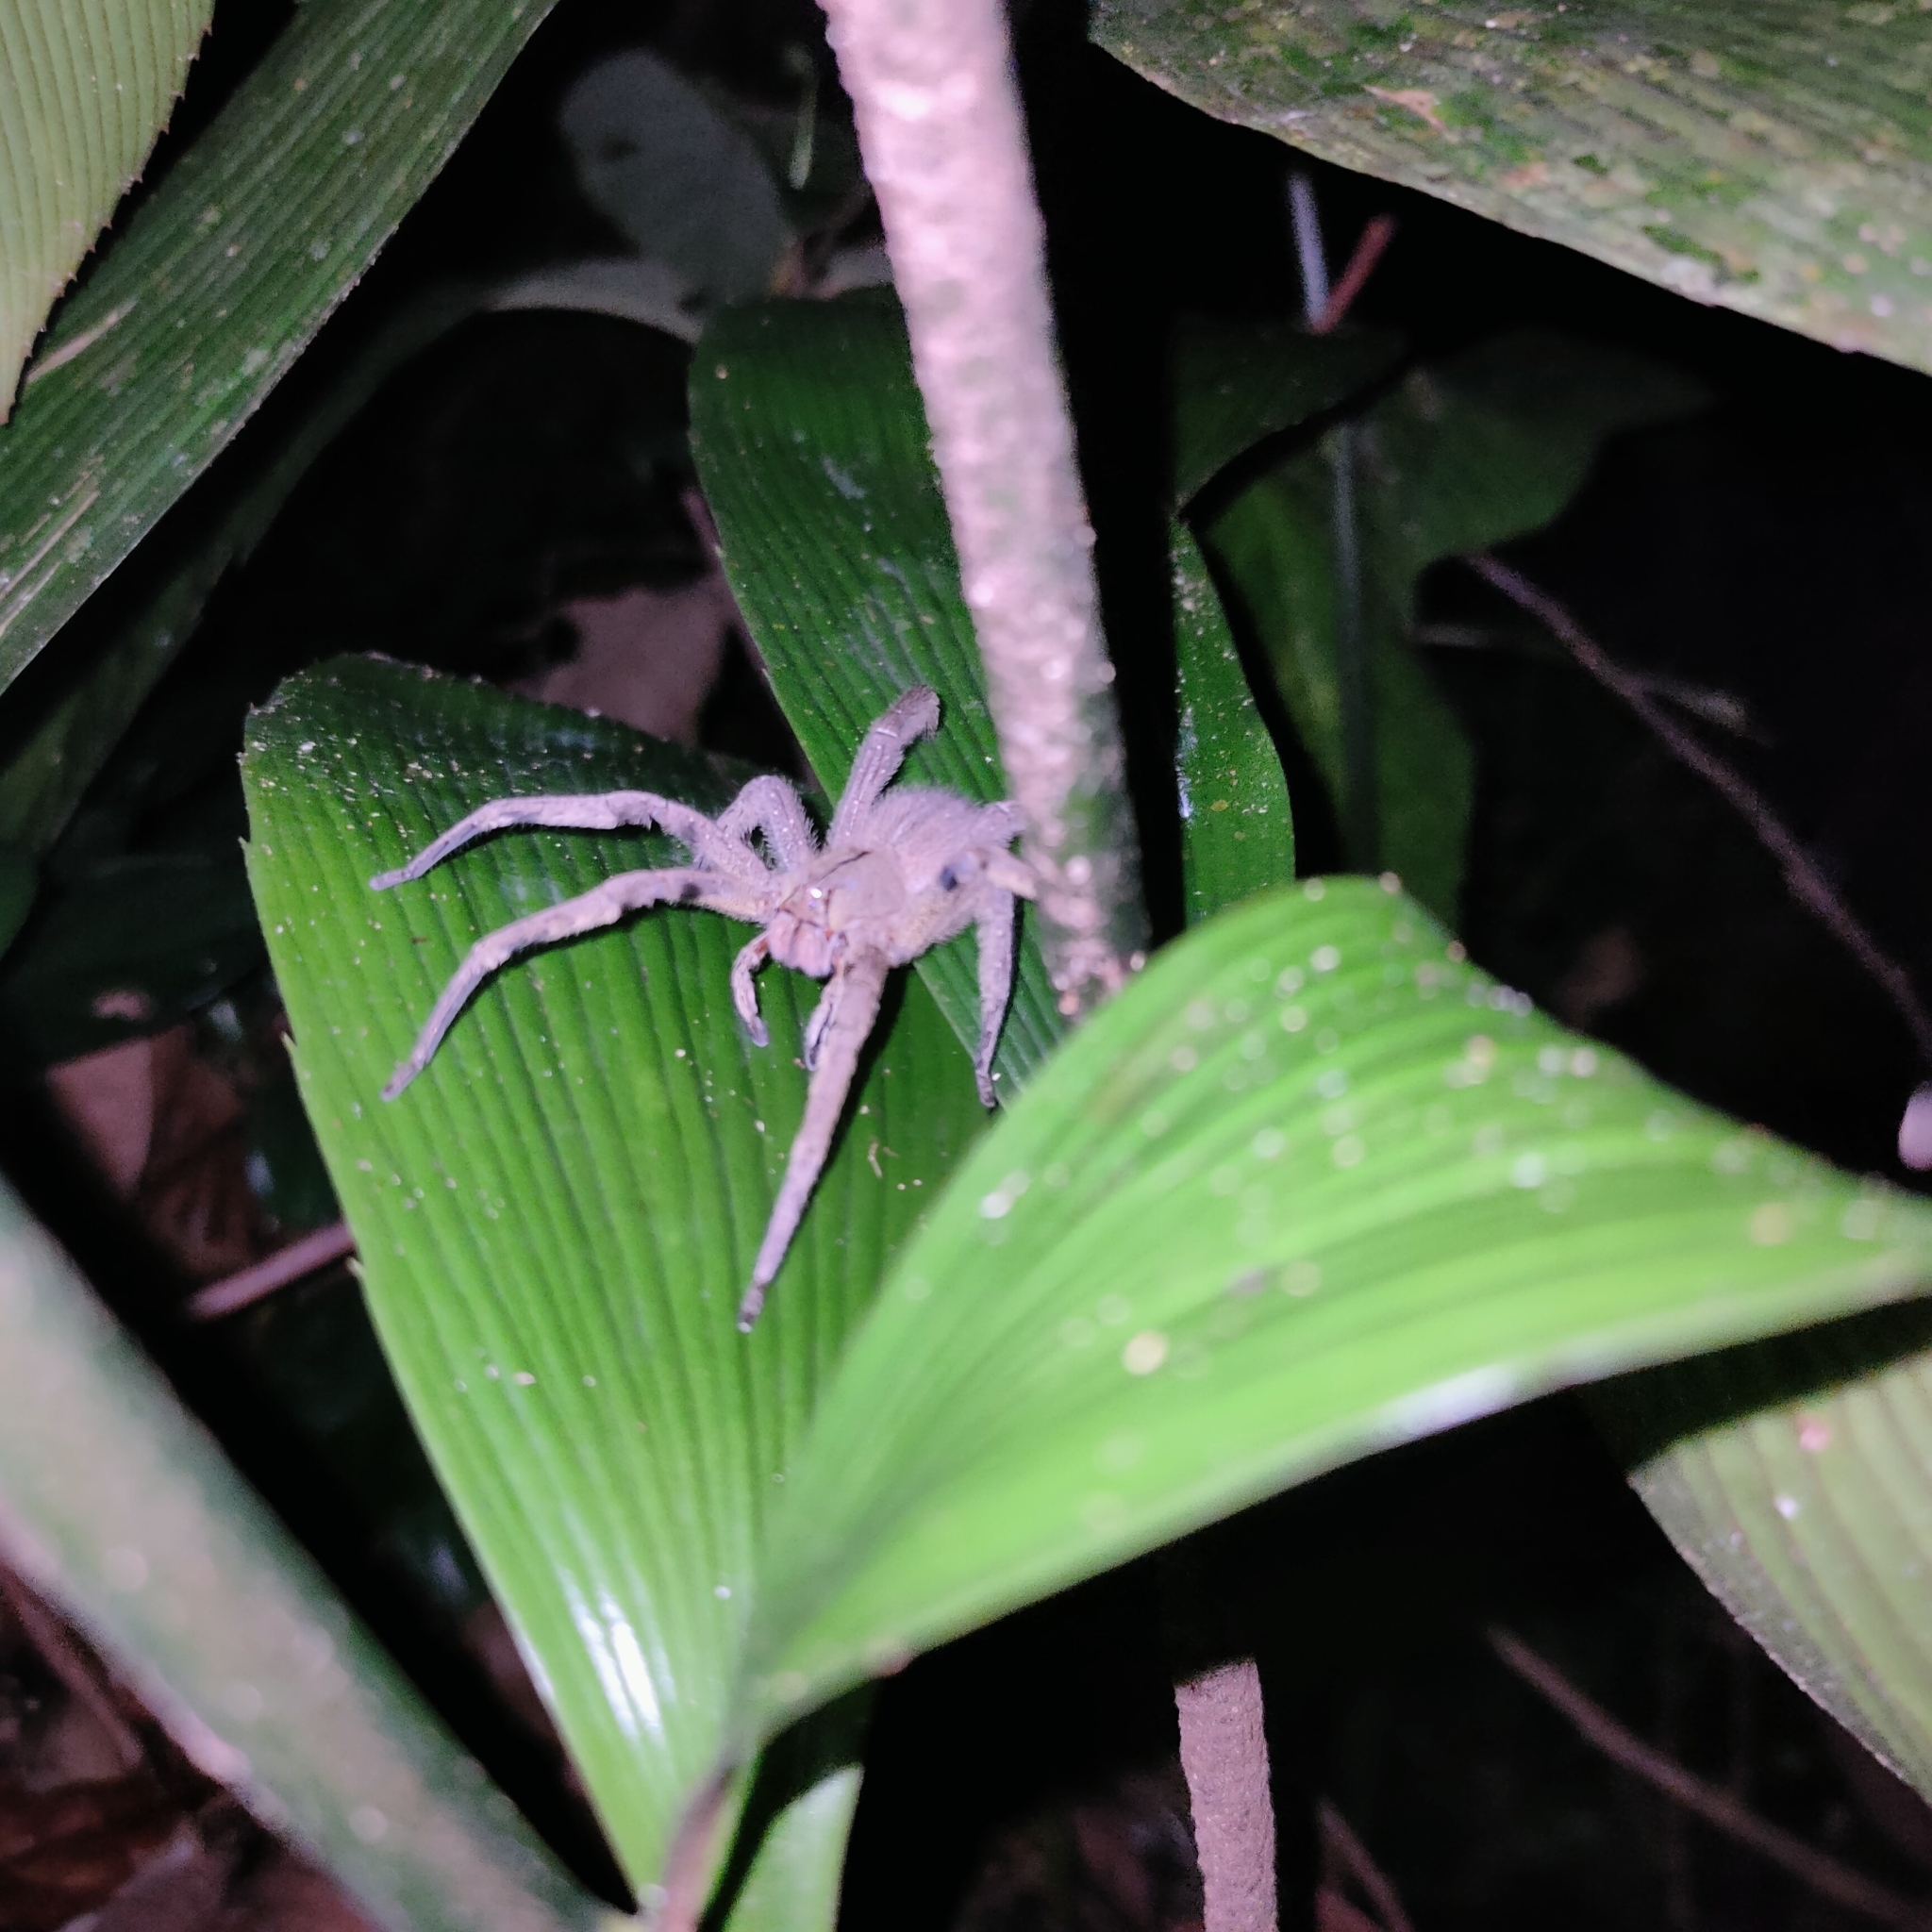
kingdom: Animalia
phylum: Arthropoda
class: Arachnida
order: Araneae
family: Ctenidae
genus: Phoneutria
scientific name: Phoneutria depilata
